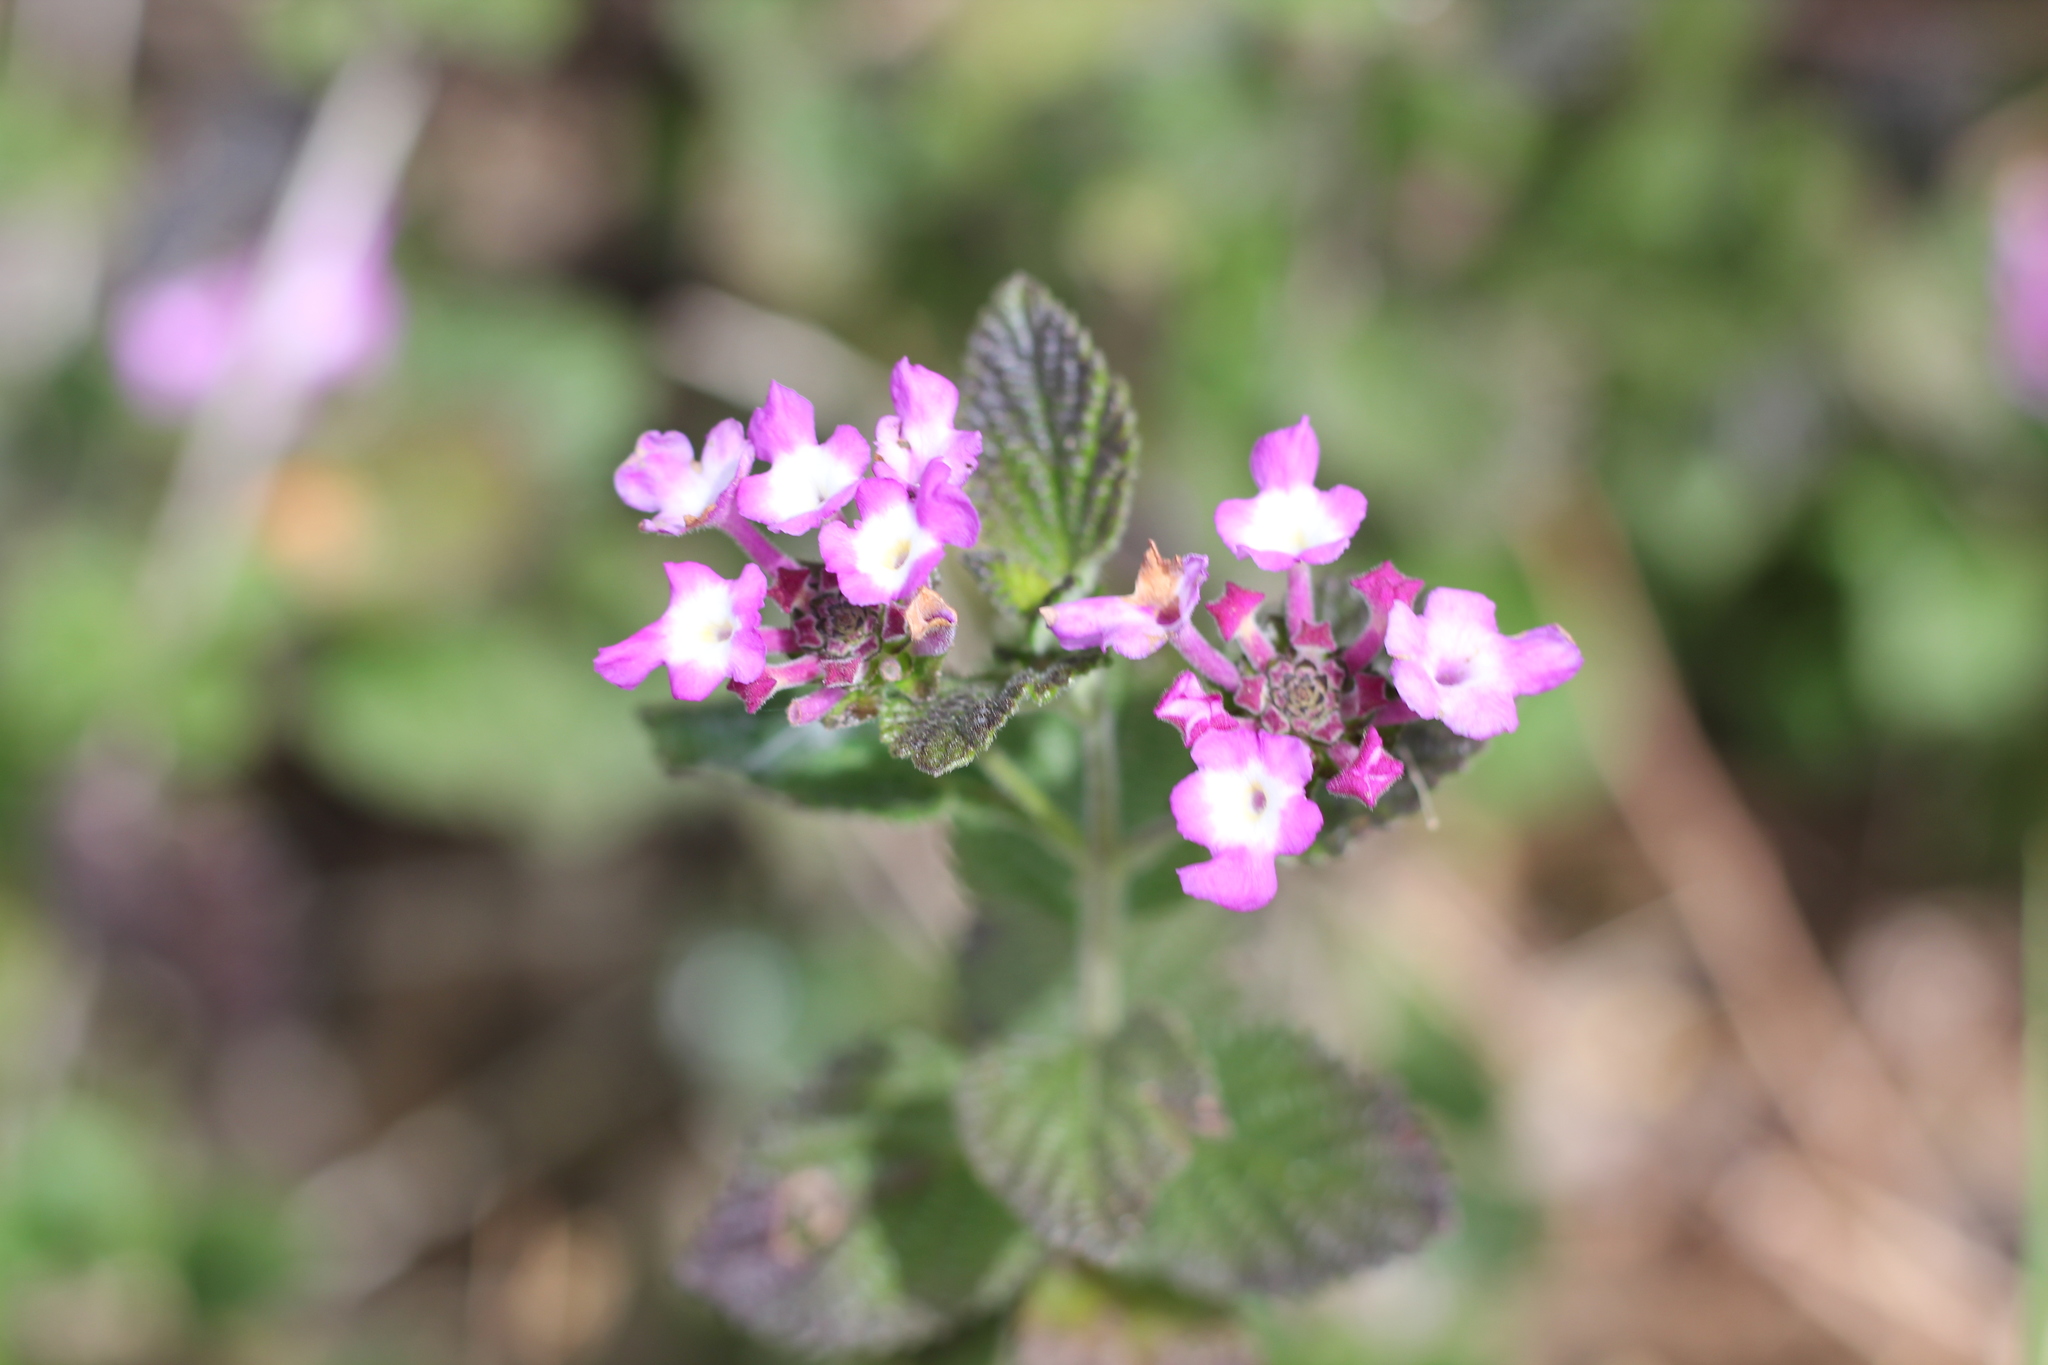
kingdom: Plantae
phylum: Tracheophyta
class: Magnoliopsida
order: Lamiales
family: Verbenaceae
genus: Lantana
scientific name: Lantana montevidensis
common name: Trailing shrubverbena
